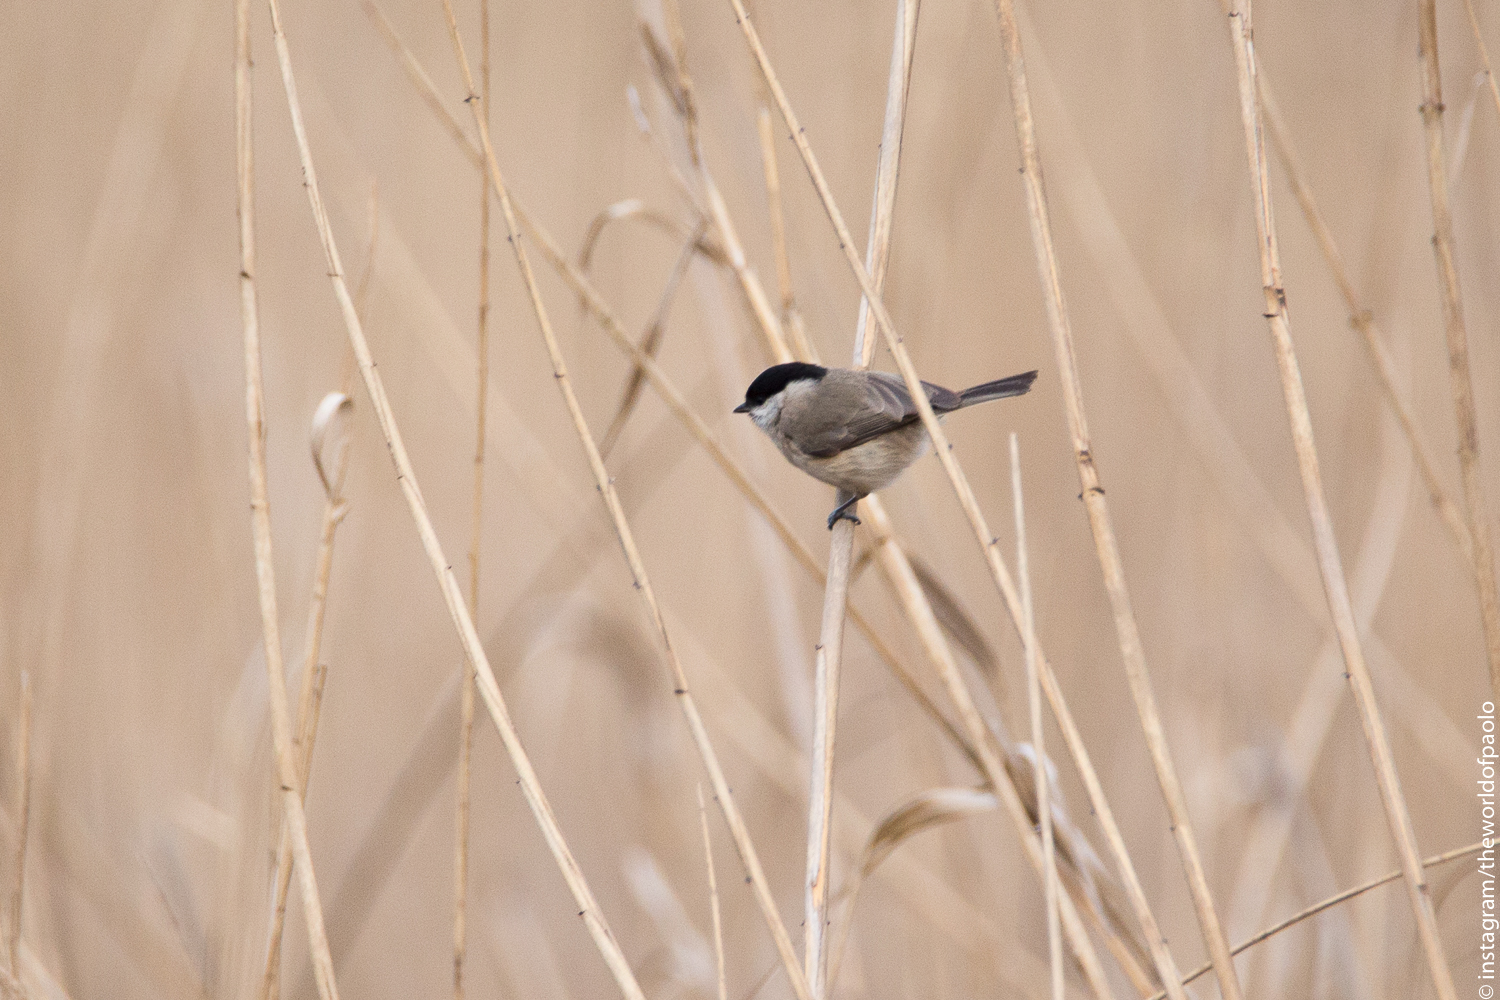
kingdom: Animalia
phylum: Chordata
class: Aves
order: Passeriformes
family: Paridae
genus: Poecile
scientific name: Poecile palustris
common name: Marsh tit
